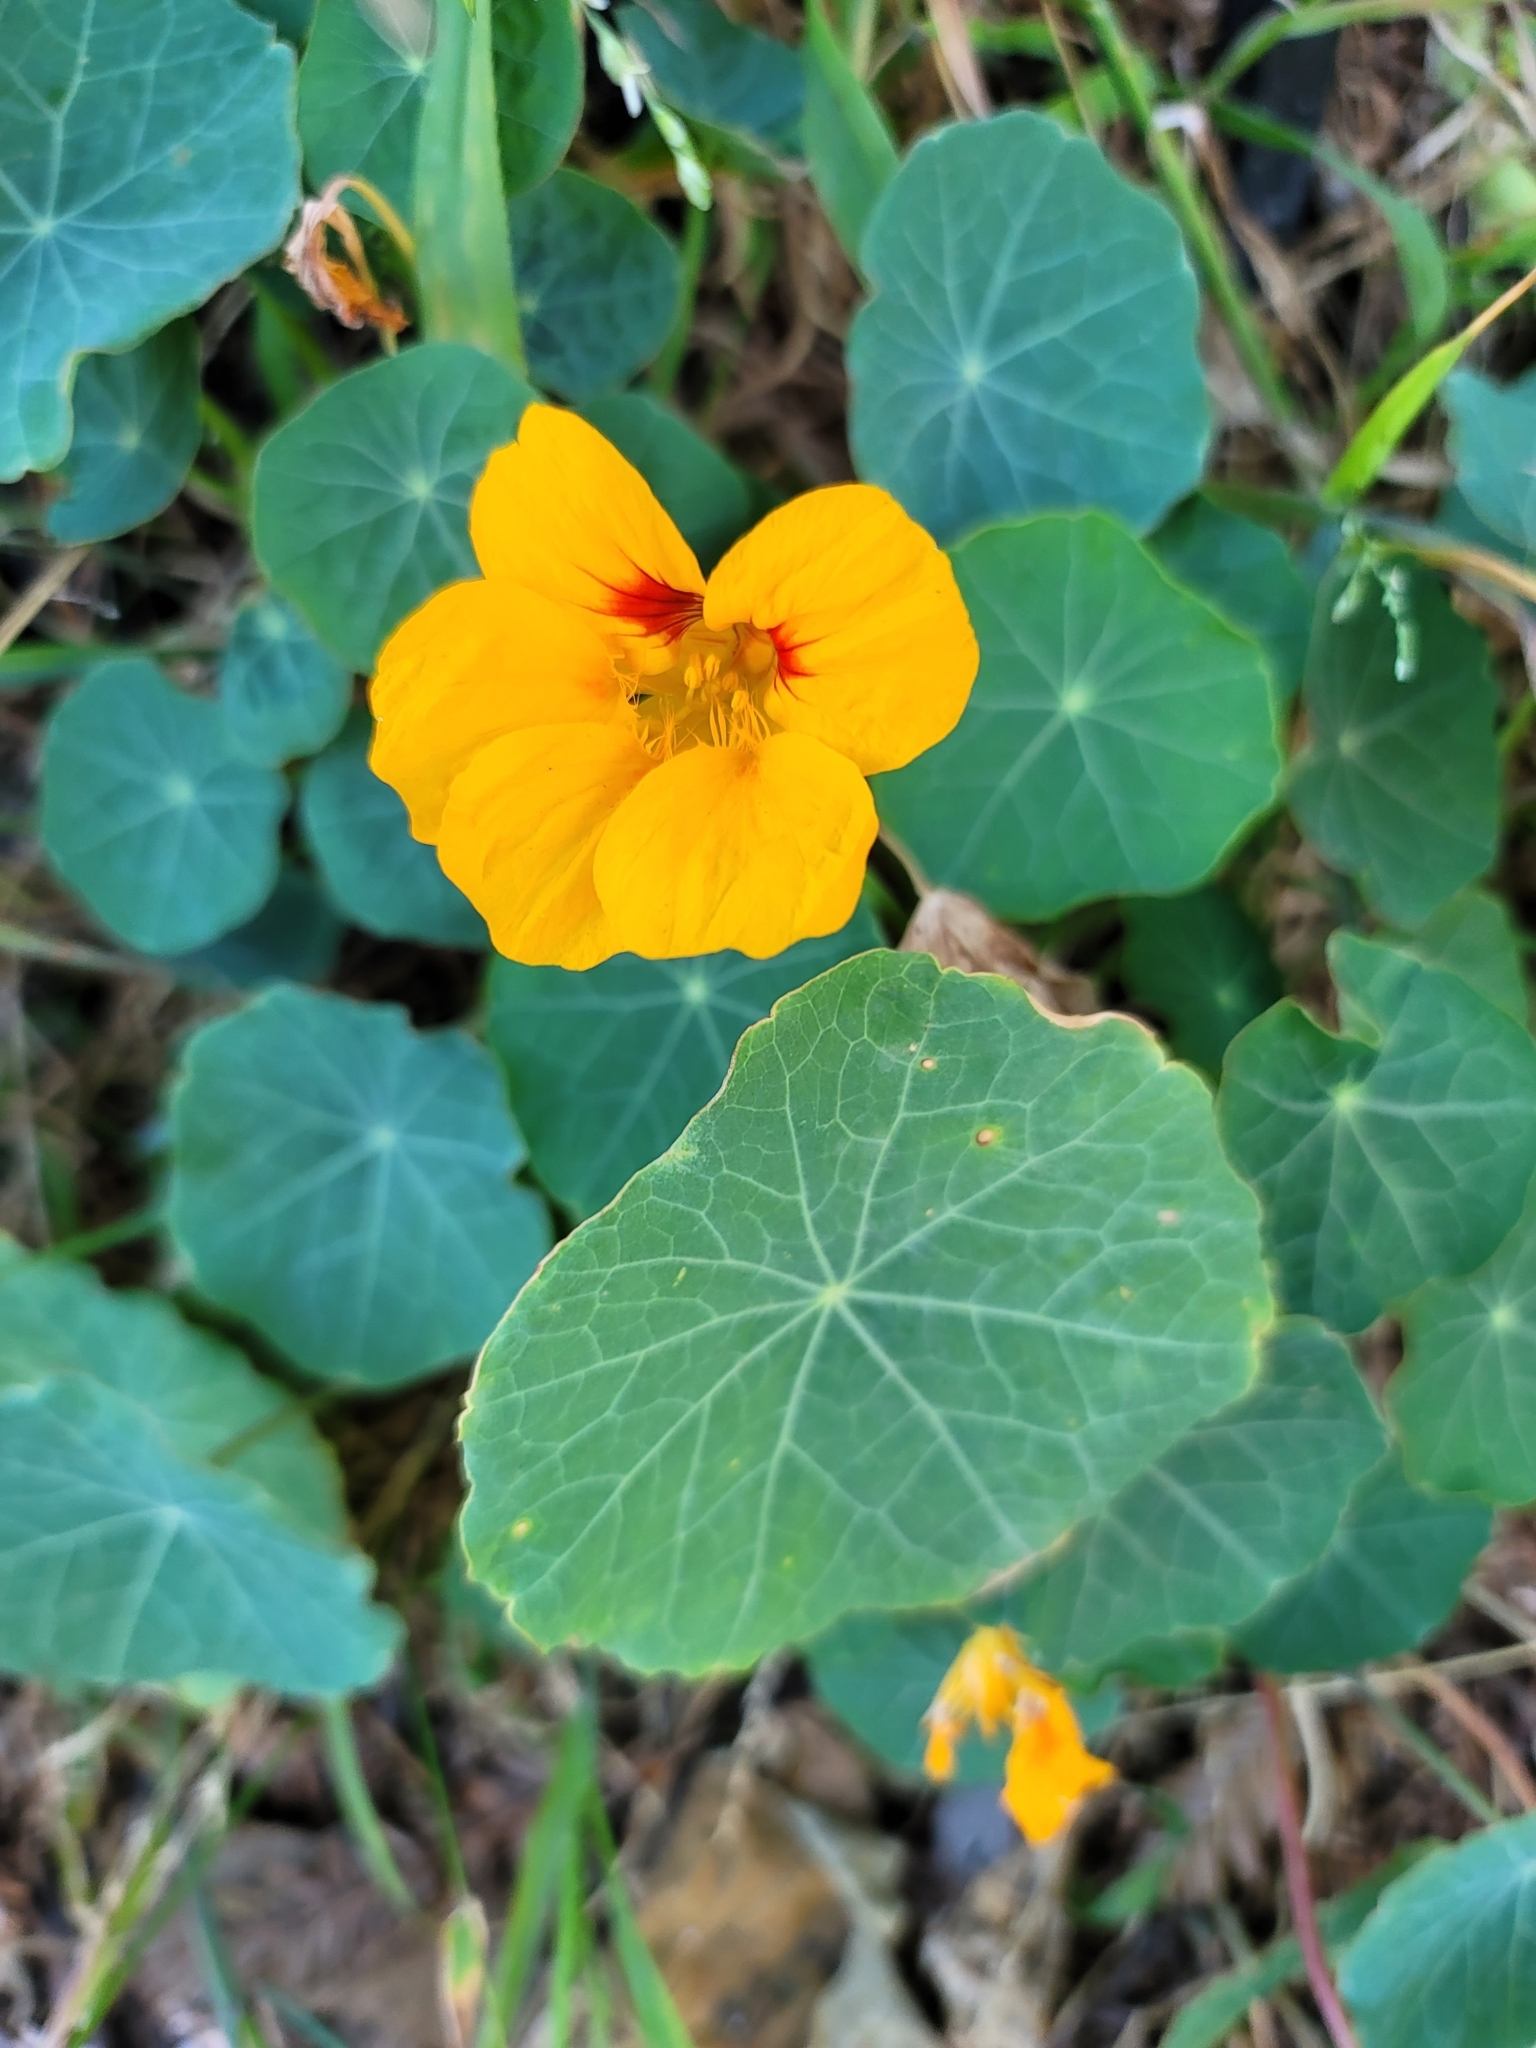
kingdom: Plantae
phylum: Tracheophyta
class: Magnoliopsida
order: Brassicales
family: Tropaeolaceae
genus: Tropaeolum
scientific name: Tropaeolum majus
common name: Nasturtium
